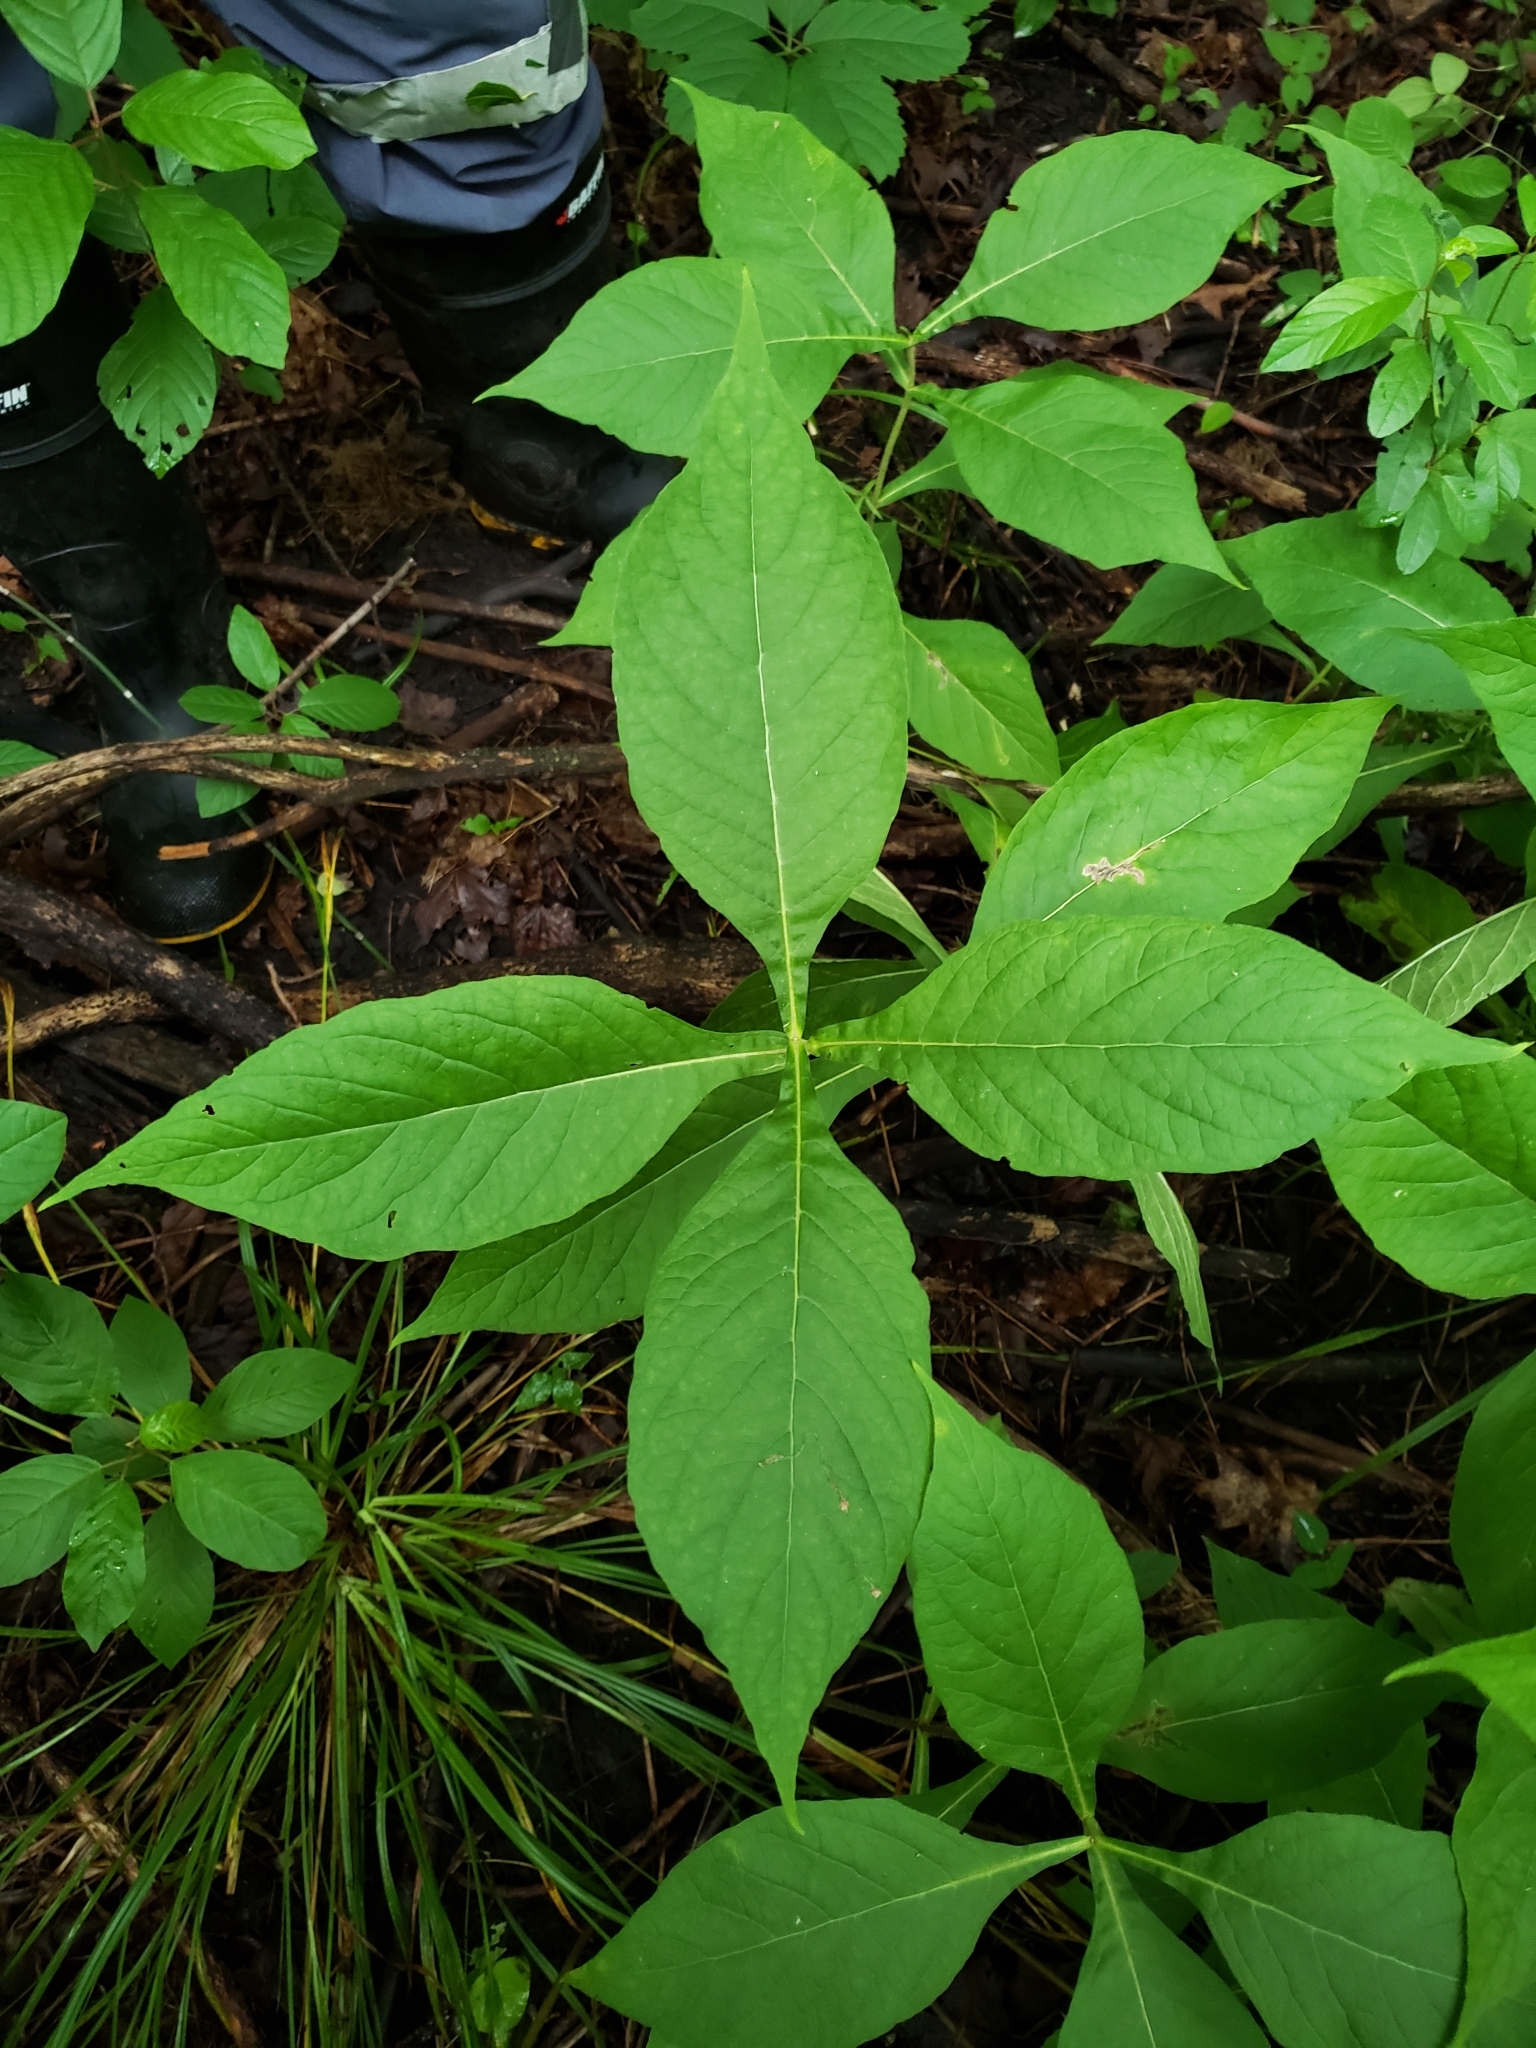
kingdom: Plantae
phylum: Tracheophyta
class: Magnoliopsida
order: Dipsacales
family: Caprifoliaceae
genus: Triosteum
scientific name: Triosteum aurantiacum
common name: Coffee tinker's-weed
